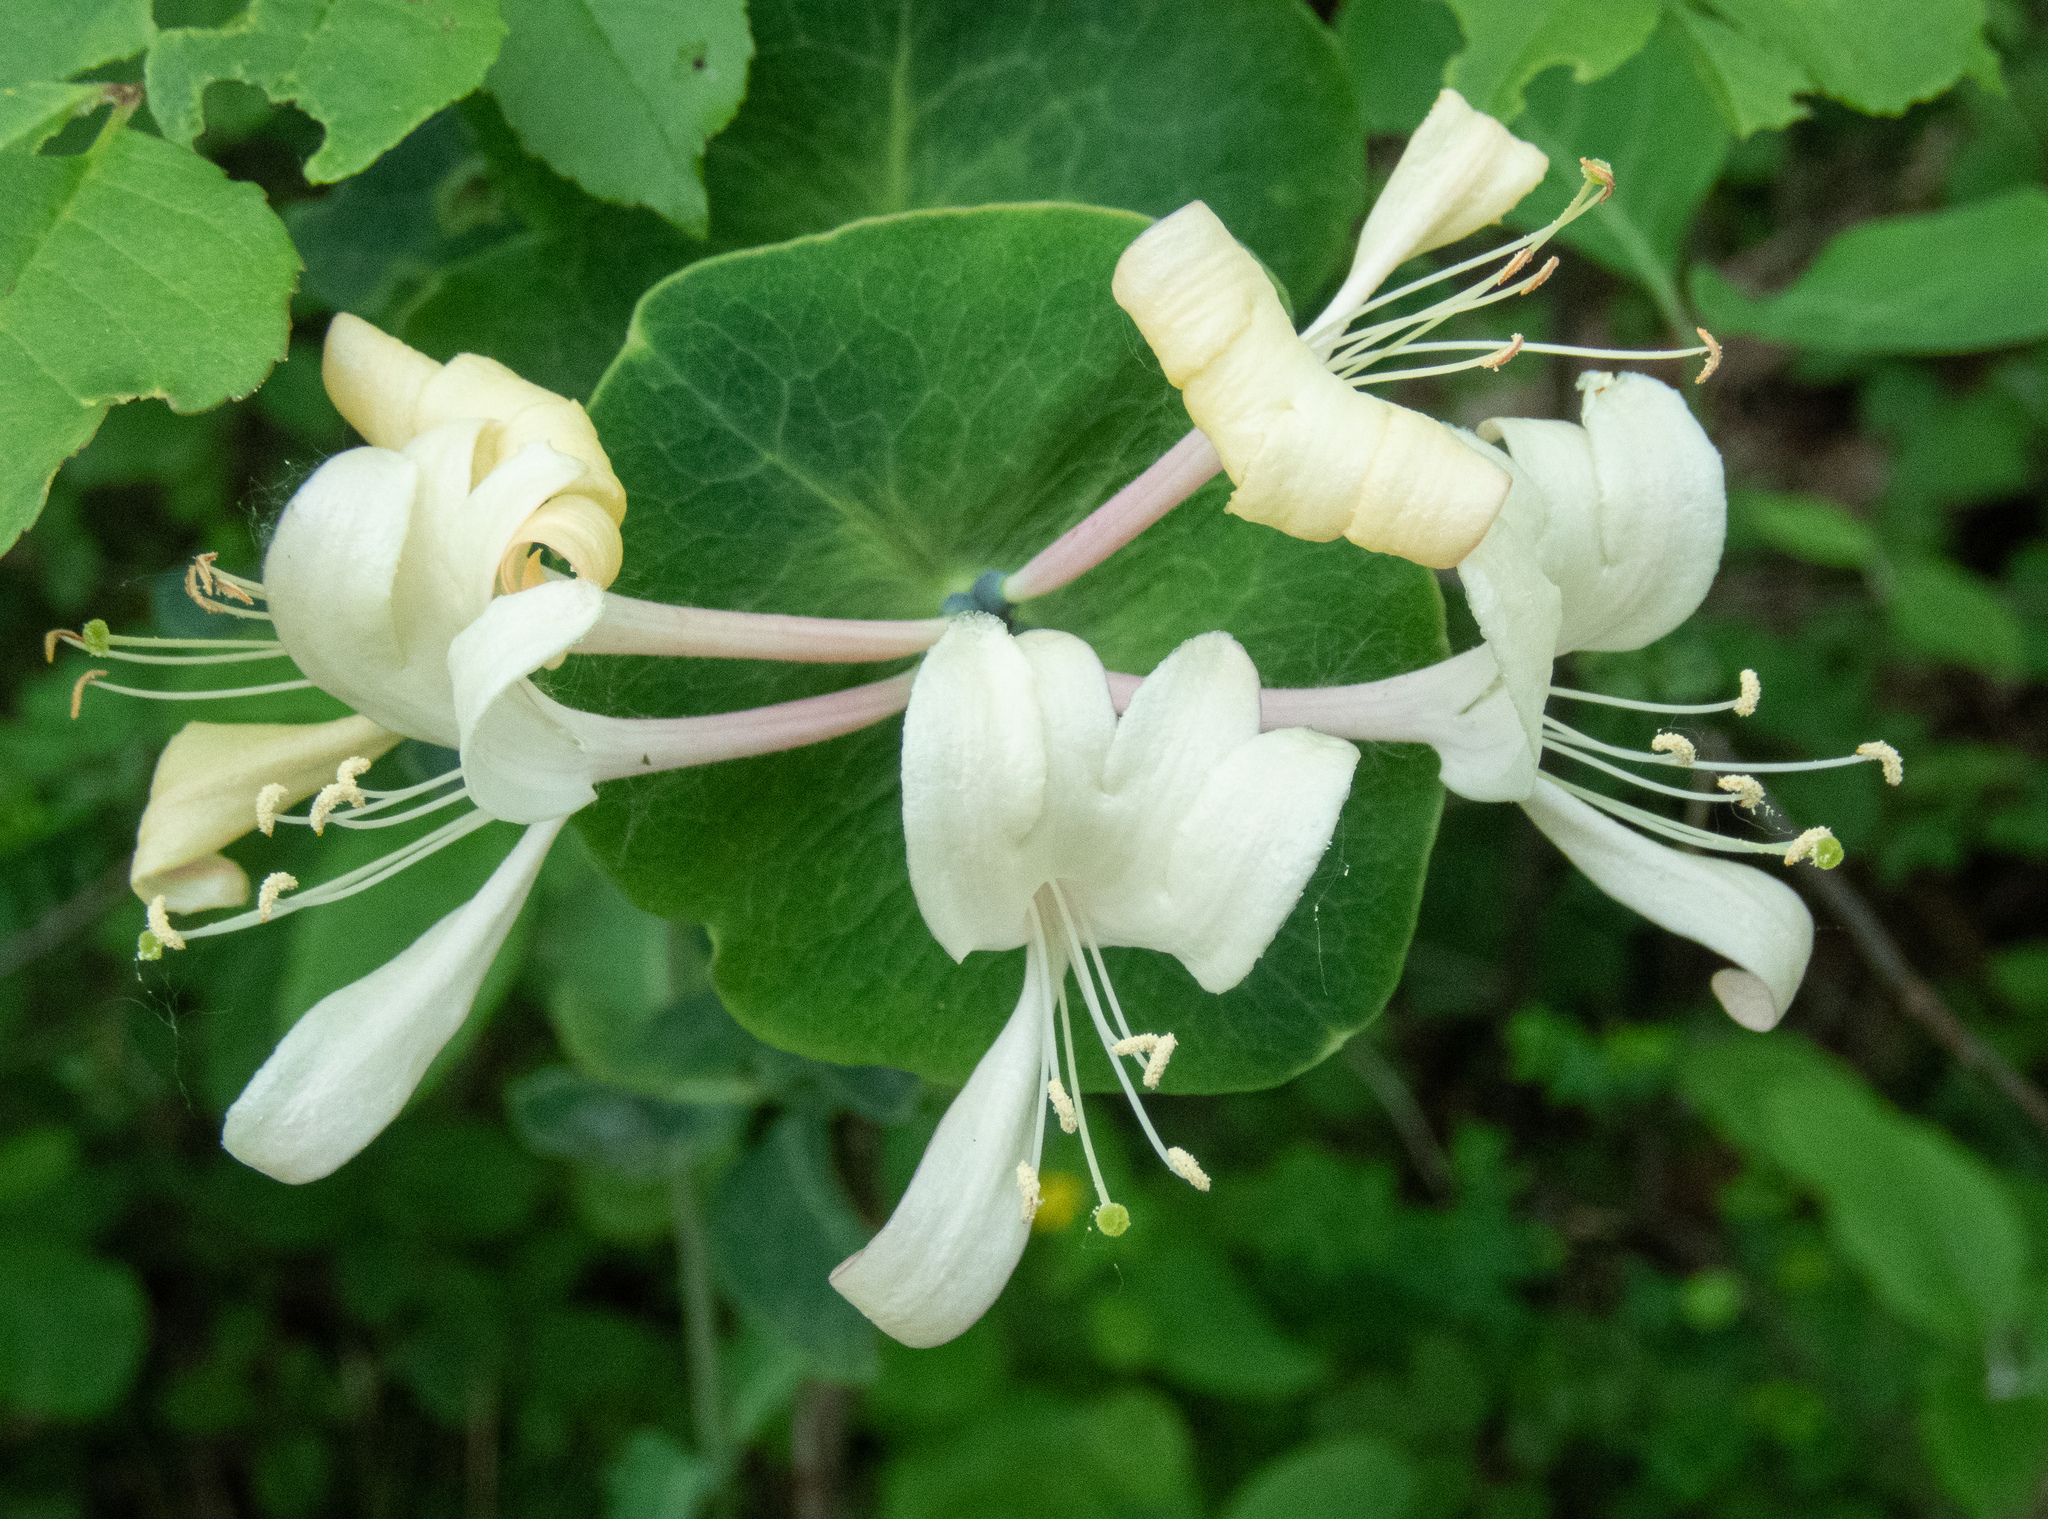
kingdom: Plantae
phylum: Tracheophyta
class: Magnoliopsida
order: Dipsacales
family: Caprifoliaceae
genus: Lonicera
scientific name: Lonicera caprifolium
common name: Perfoliate honeysuckle
